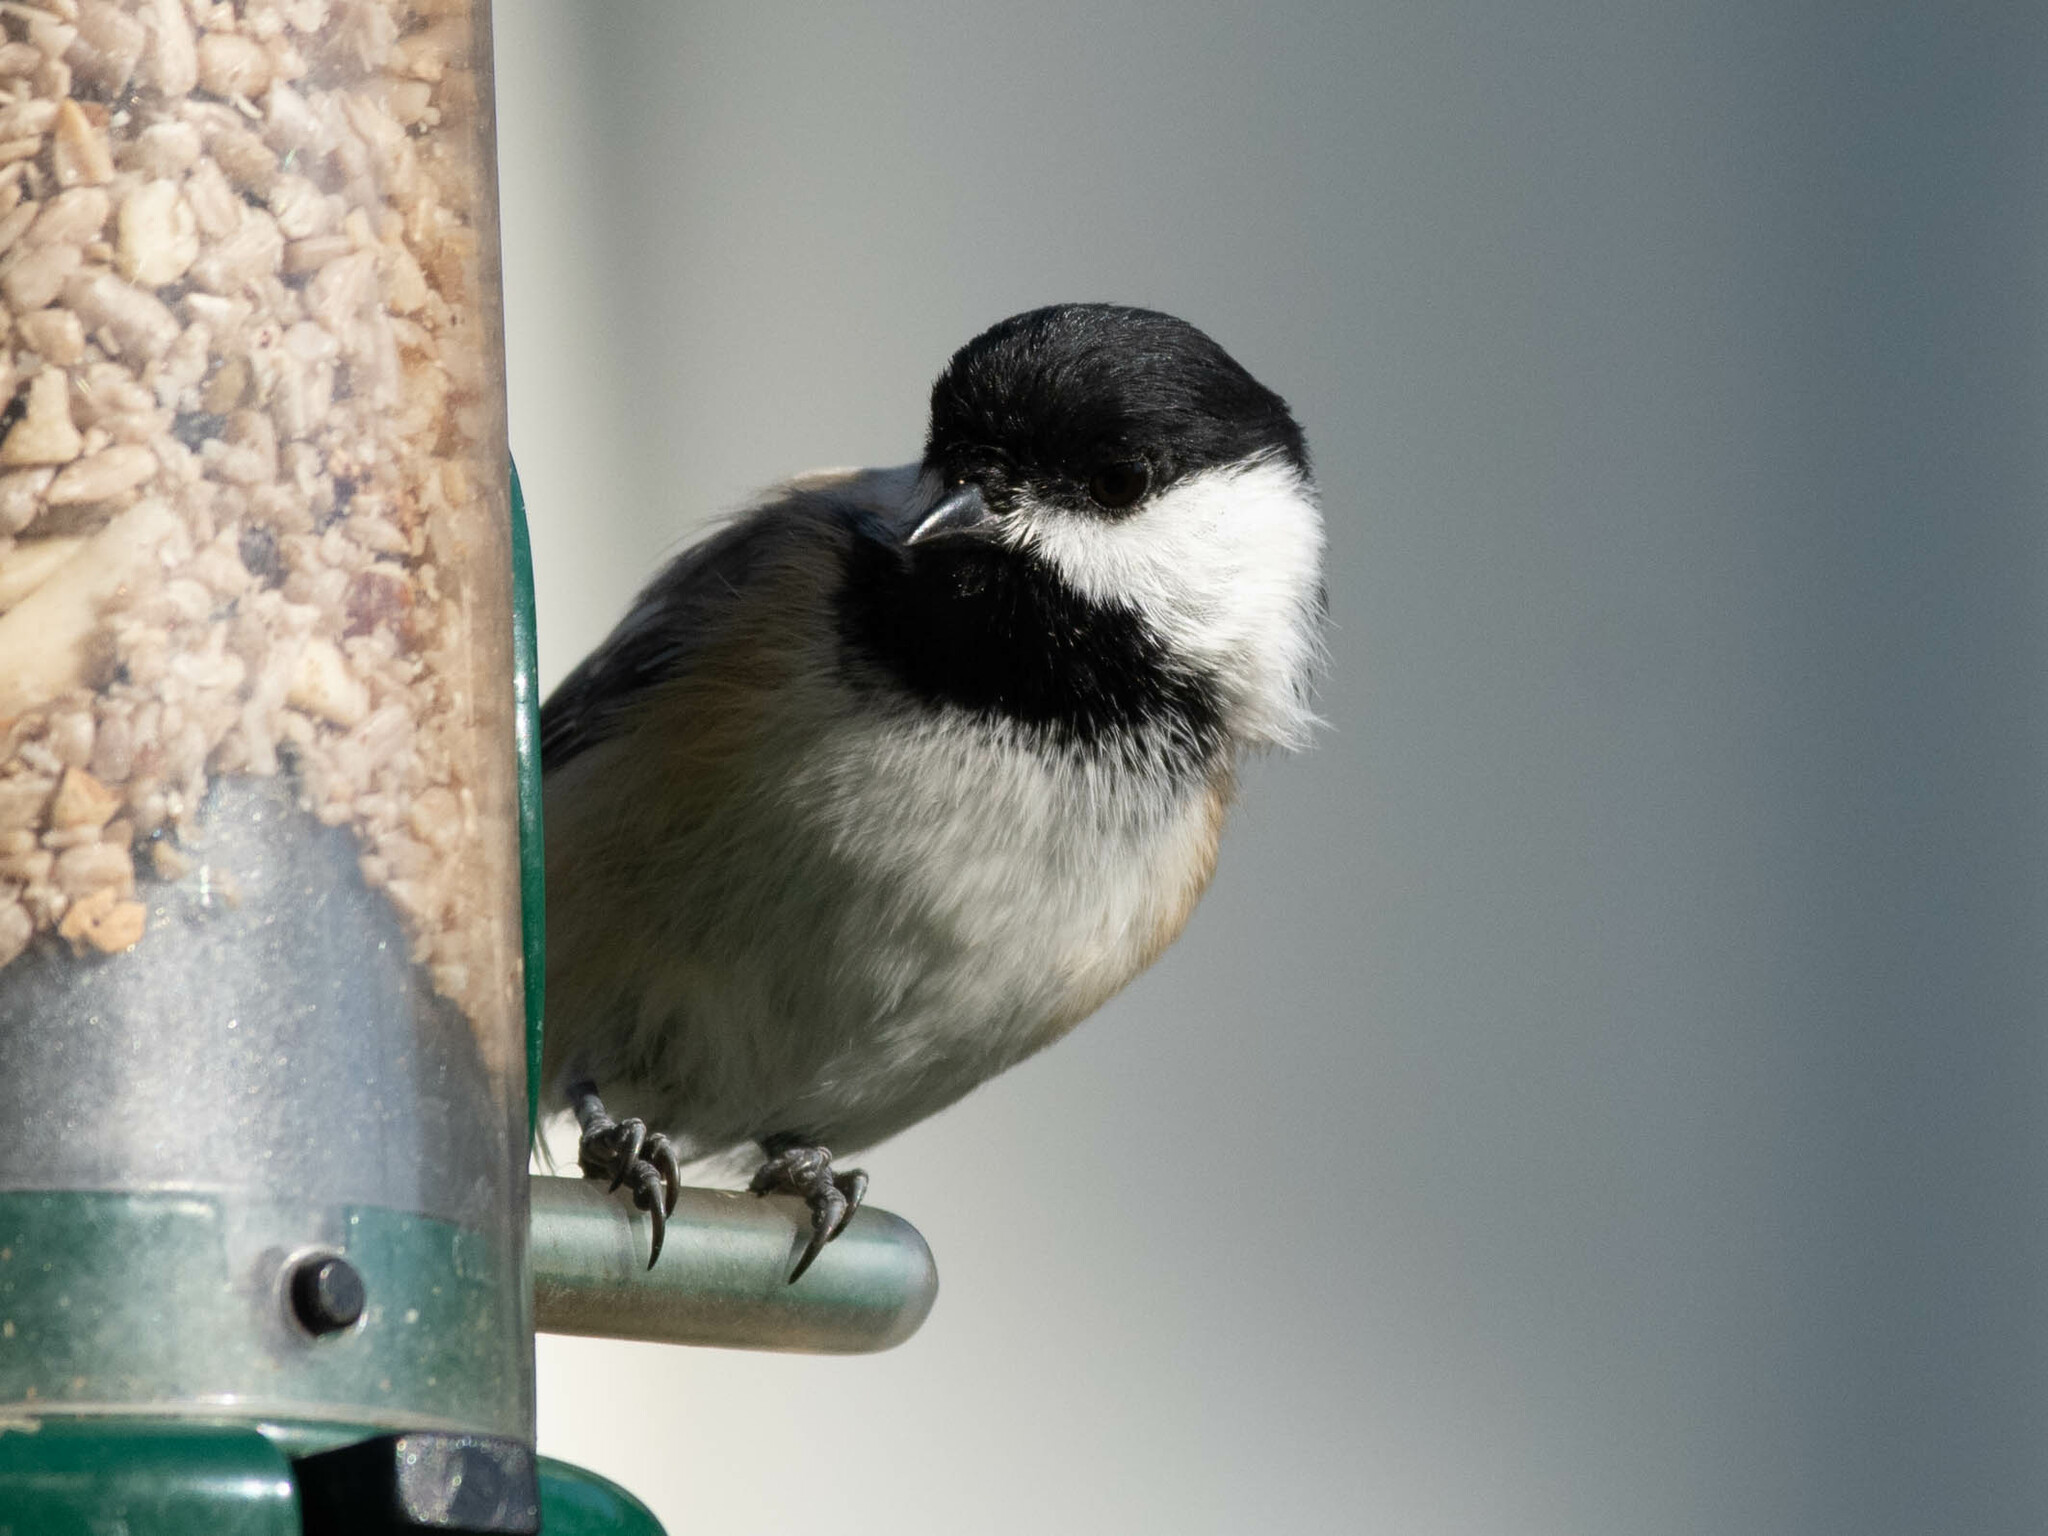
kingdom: Animalia
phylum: Chordata
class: Aves
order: Passeriformes
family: Paridae
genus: Poecile
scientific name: Poecile atricapillus
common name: Black-capped chickadee
